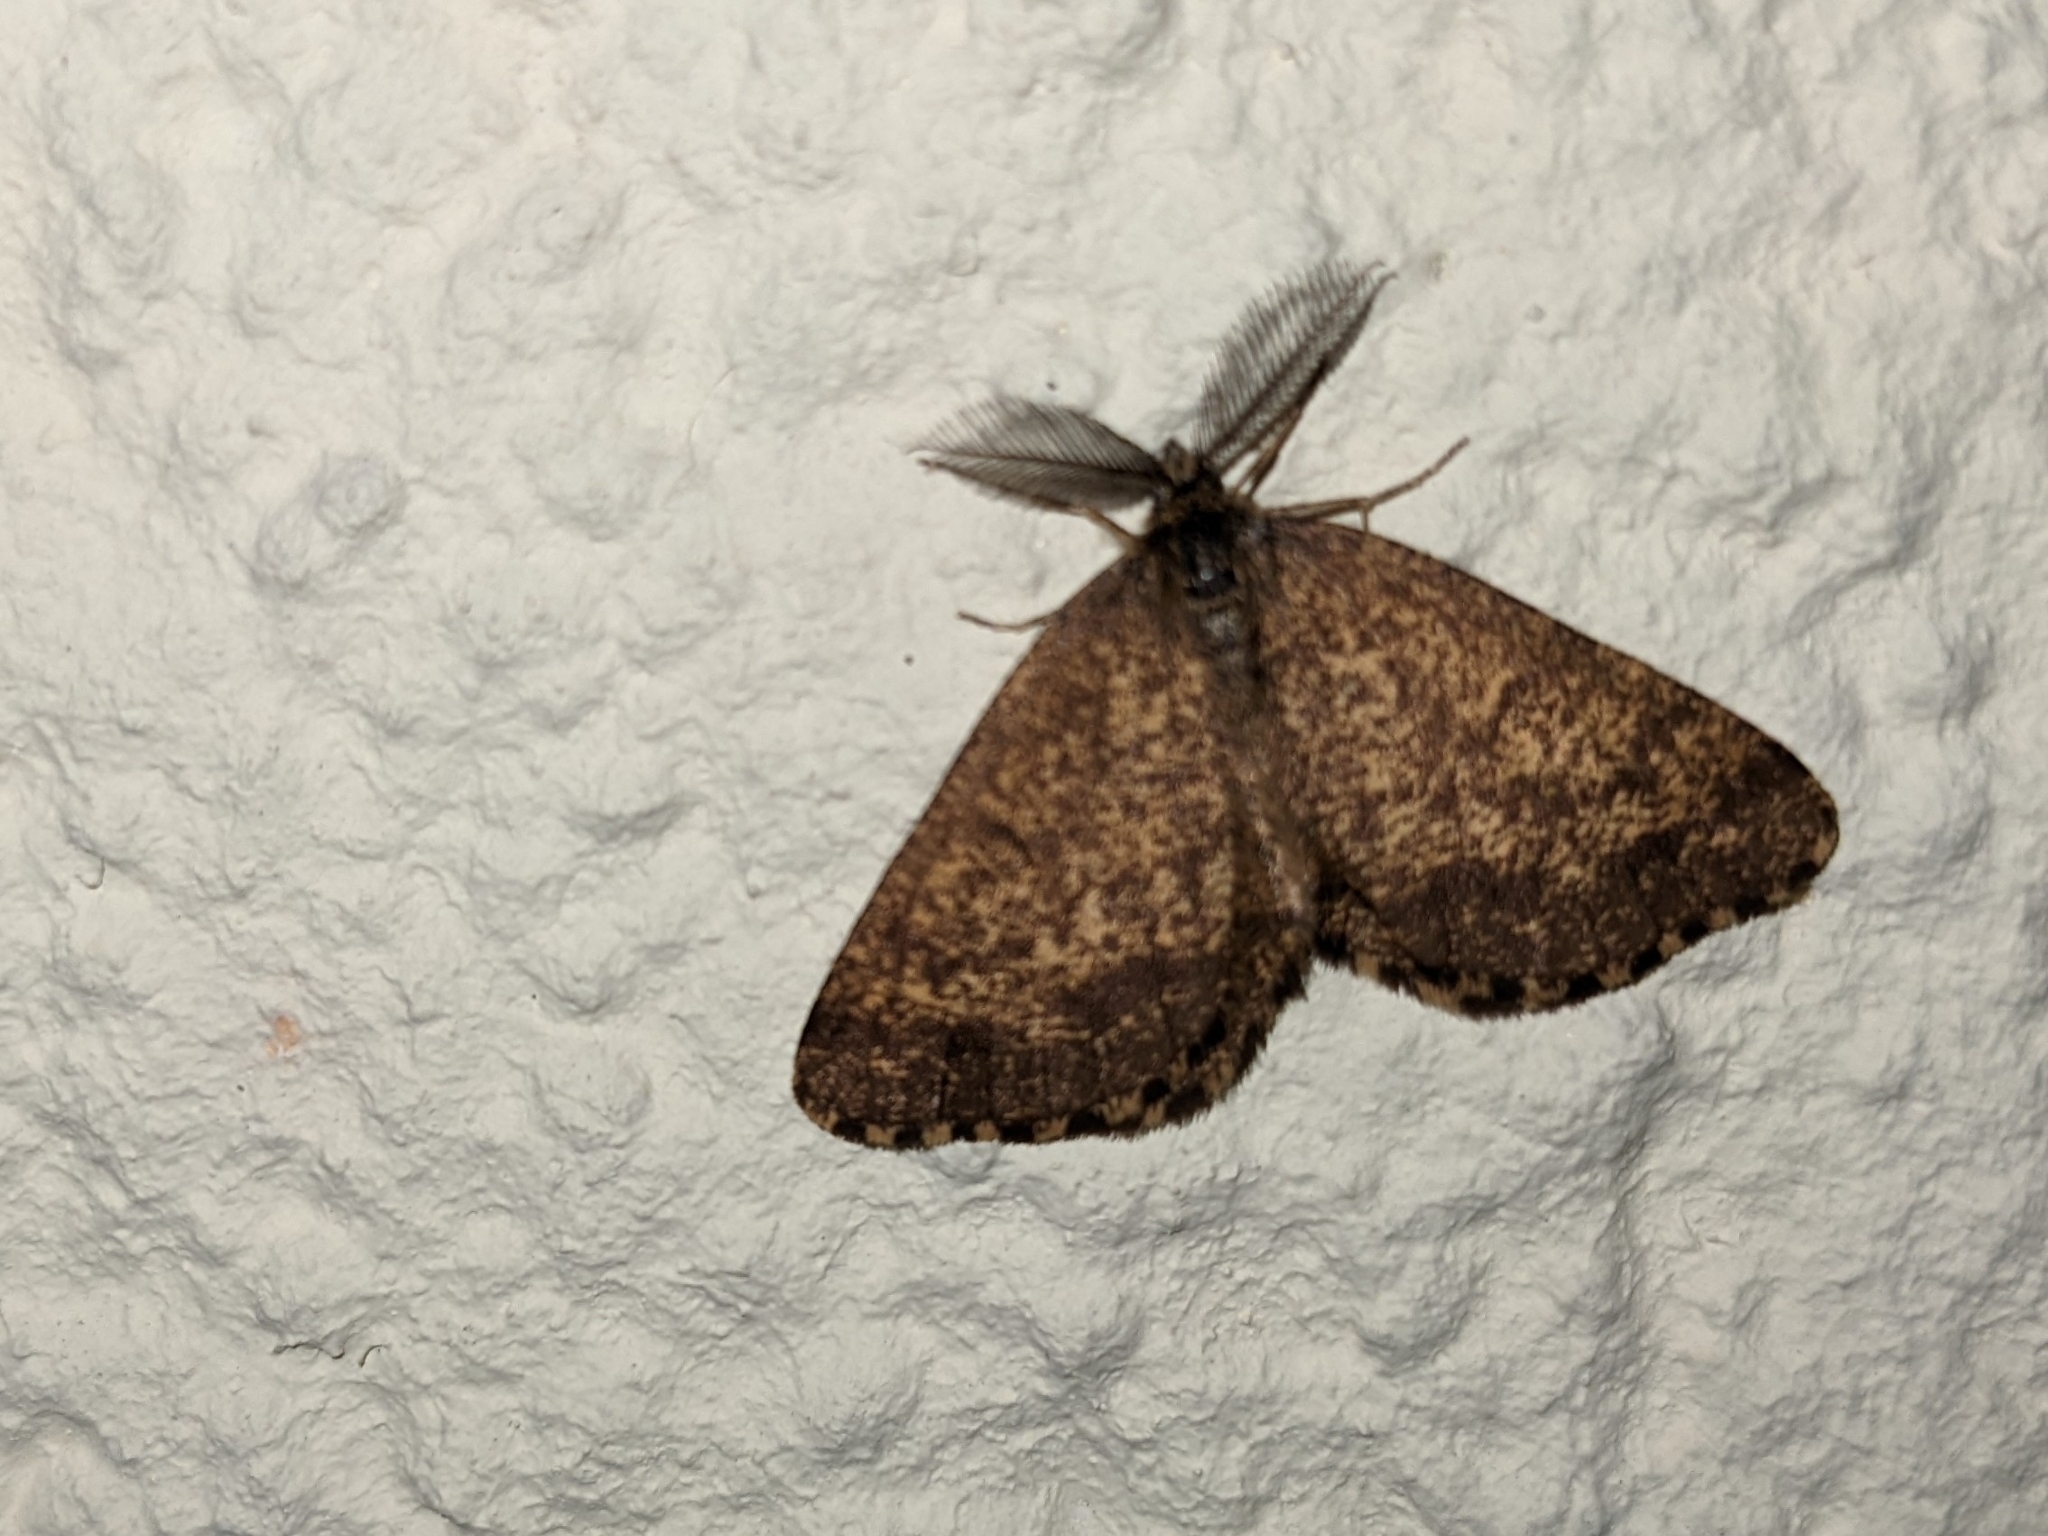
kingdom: Animalia
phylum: Arthropoda
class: Insecta
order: Lepidoptera
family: Geometridae
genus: Ematurga
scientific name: Ematurga atomaria
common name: Common heath
